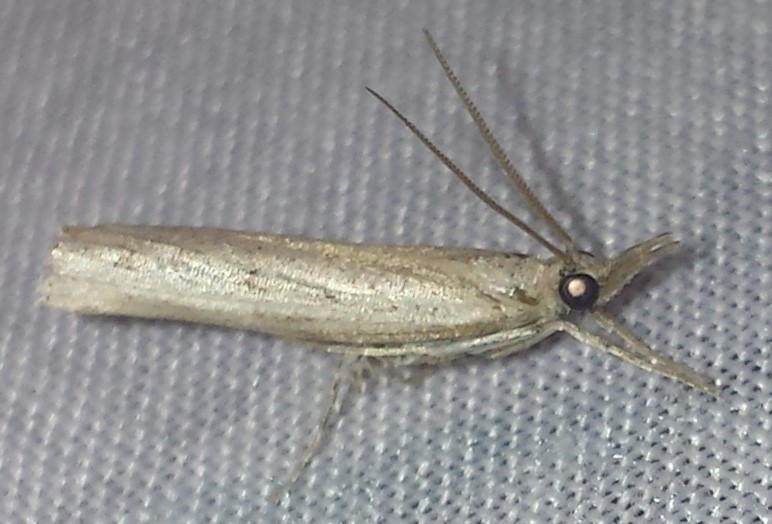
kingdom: Animalia
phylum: Arthropoda
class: Insecta
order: Lepidoptera
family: Crambidae
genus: Fissicrambus
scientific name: Fissicrambus mutabilis
